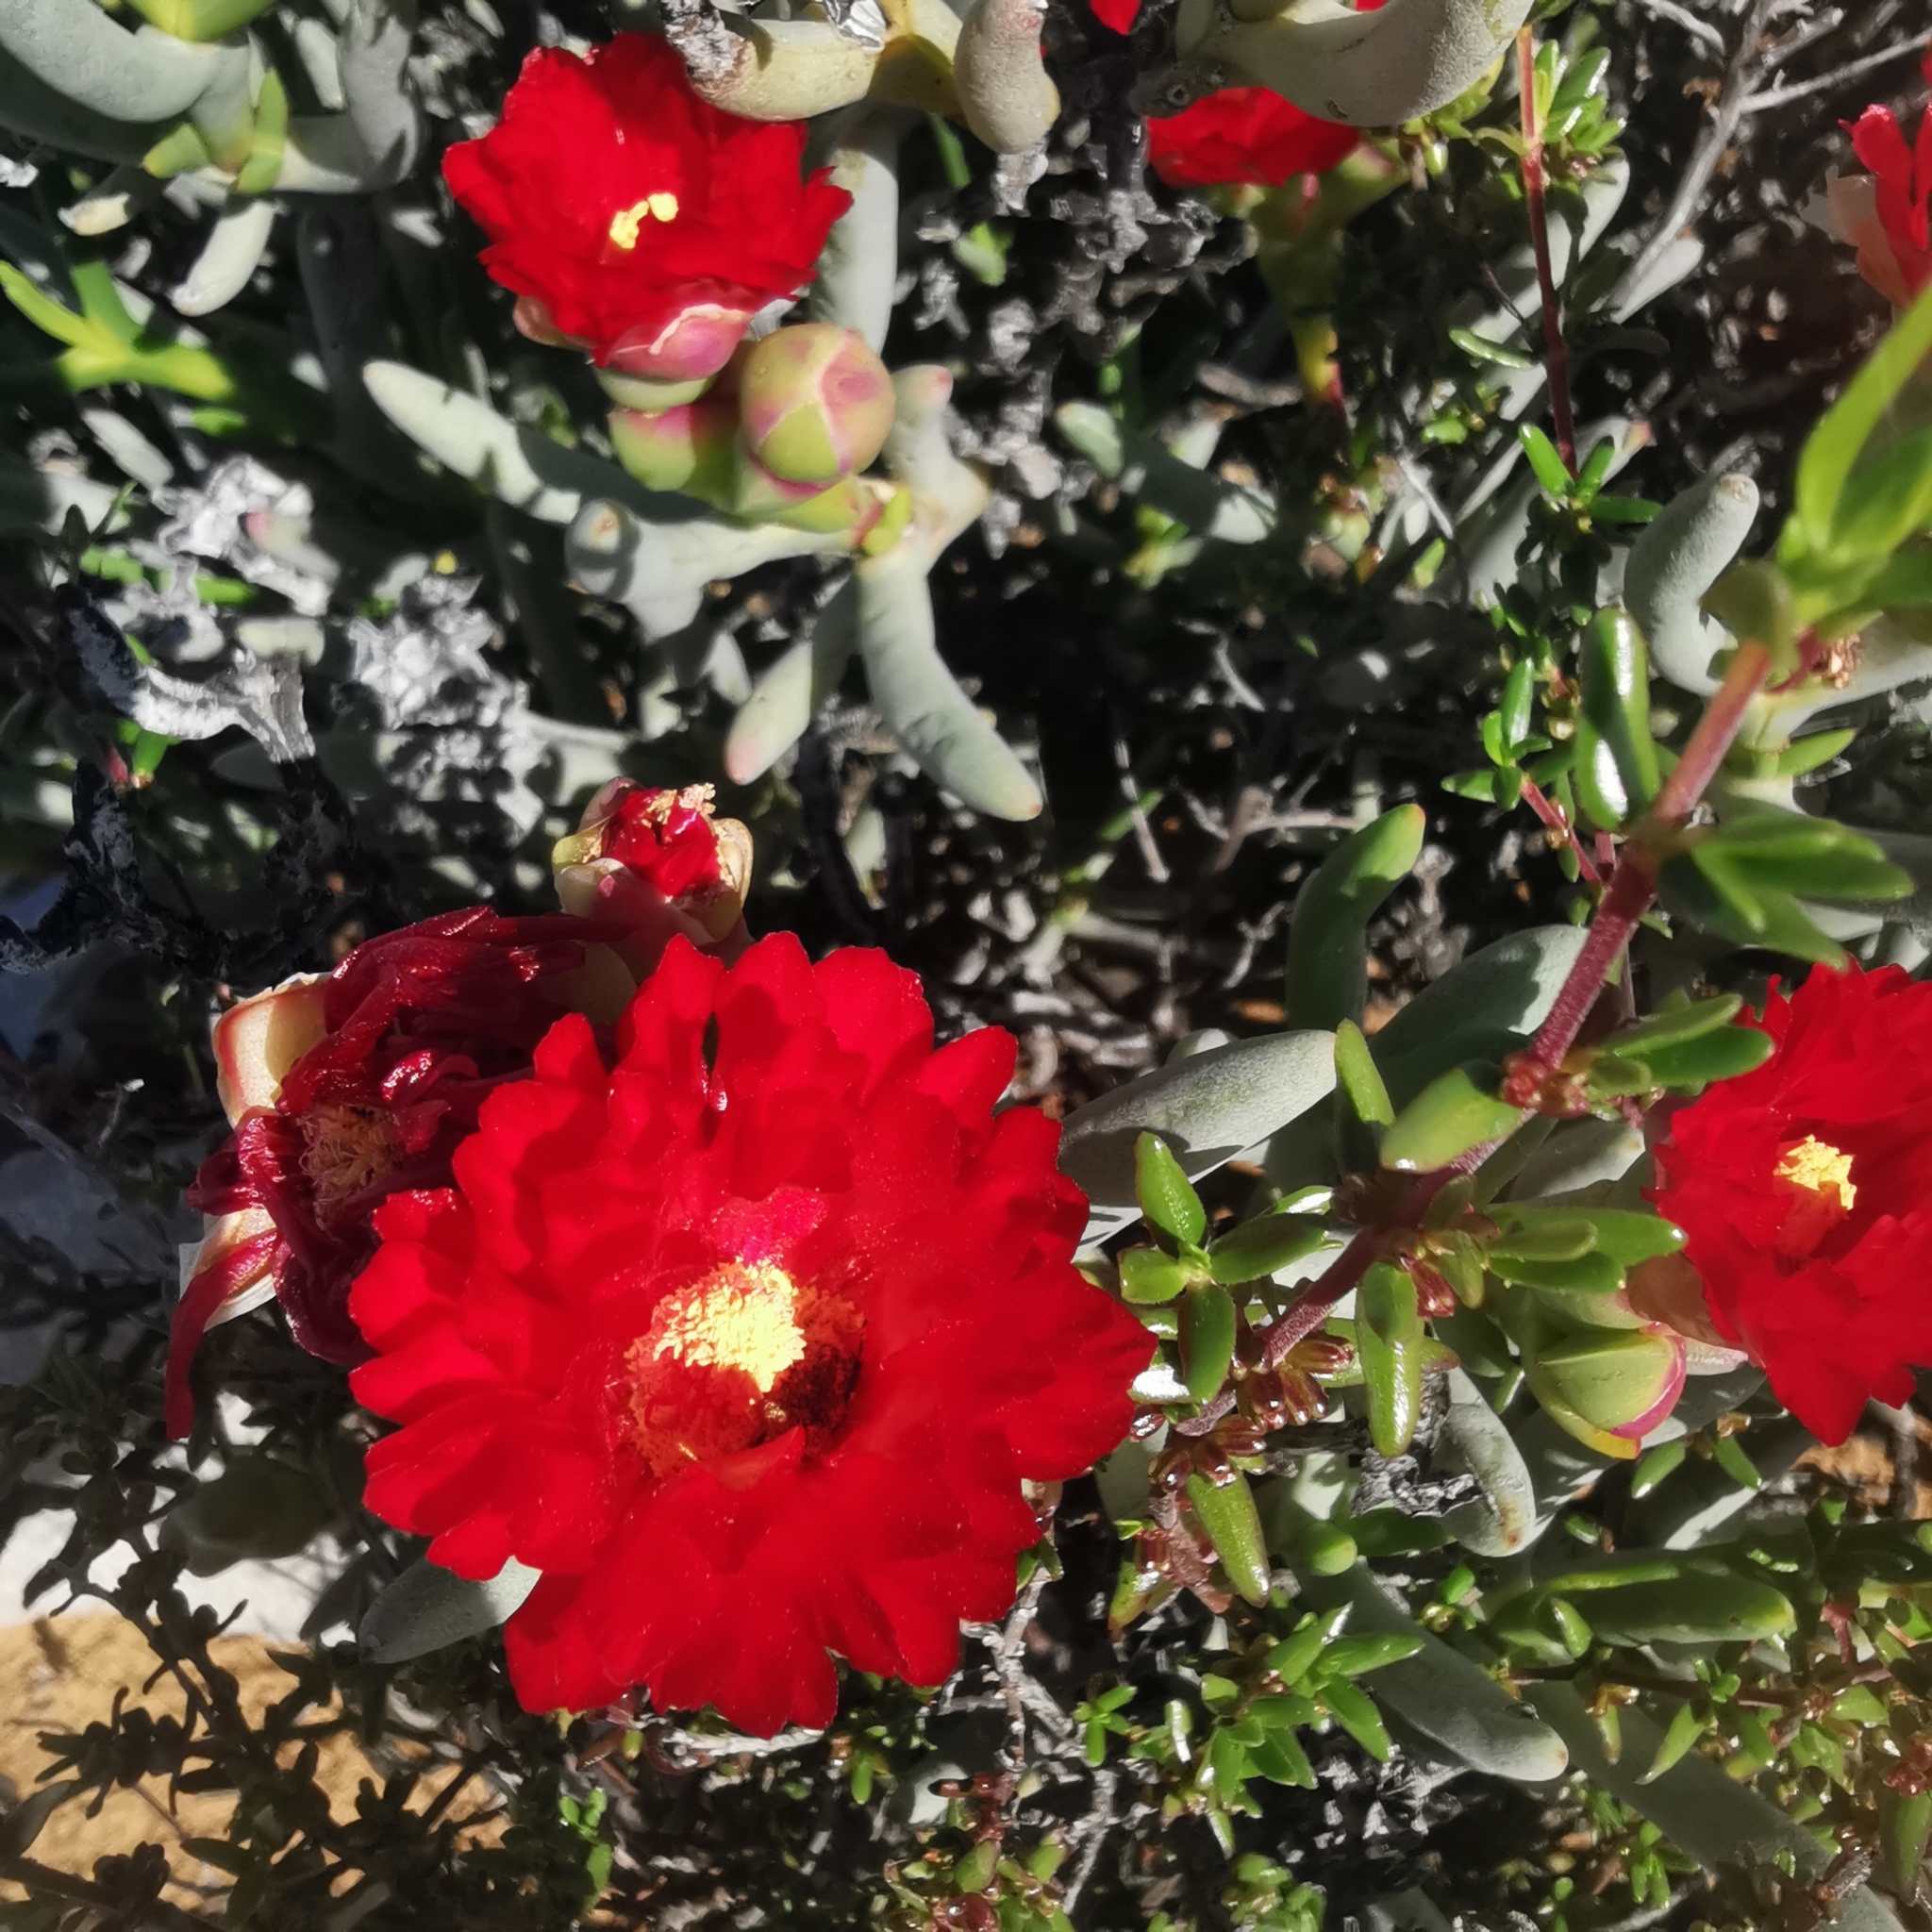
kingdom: Plantae
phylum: Tracheophyta
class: Magnoliopsida
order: Caryophyllales
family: Aizoaceae
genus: Ruschia
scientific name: Ruschia marianae
